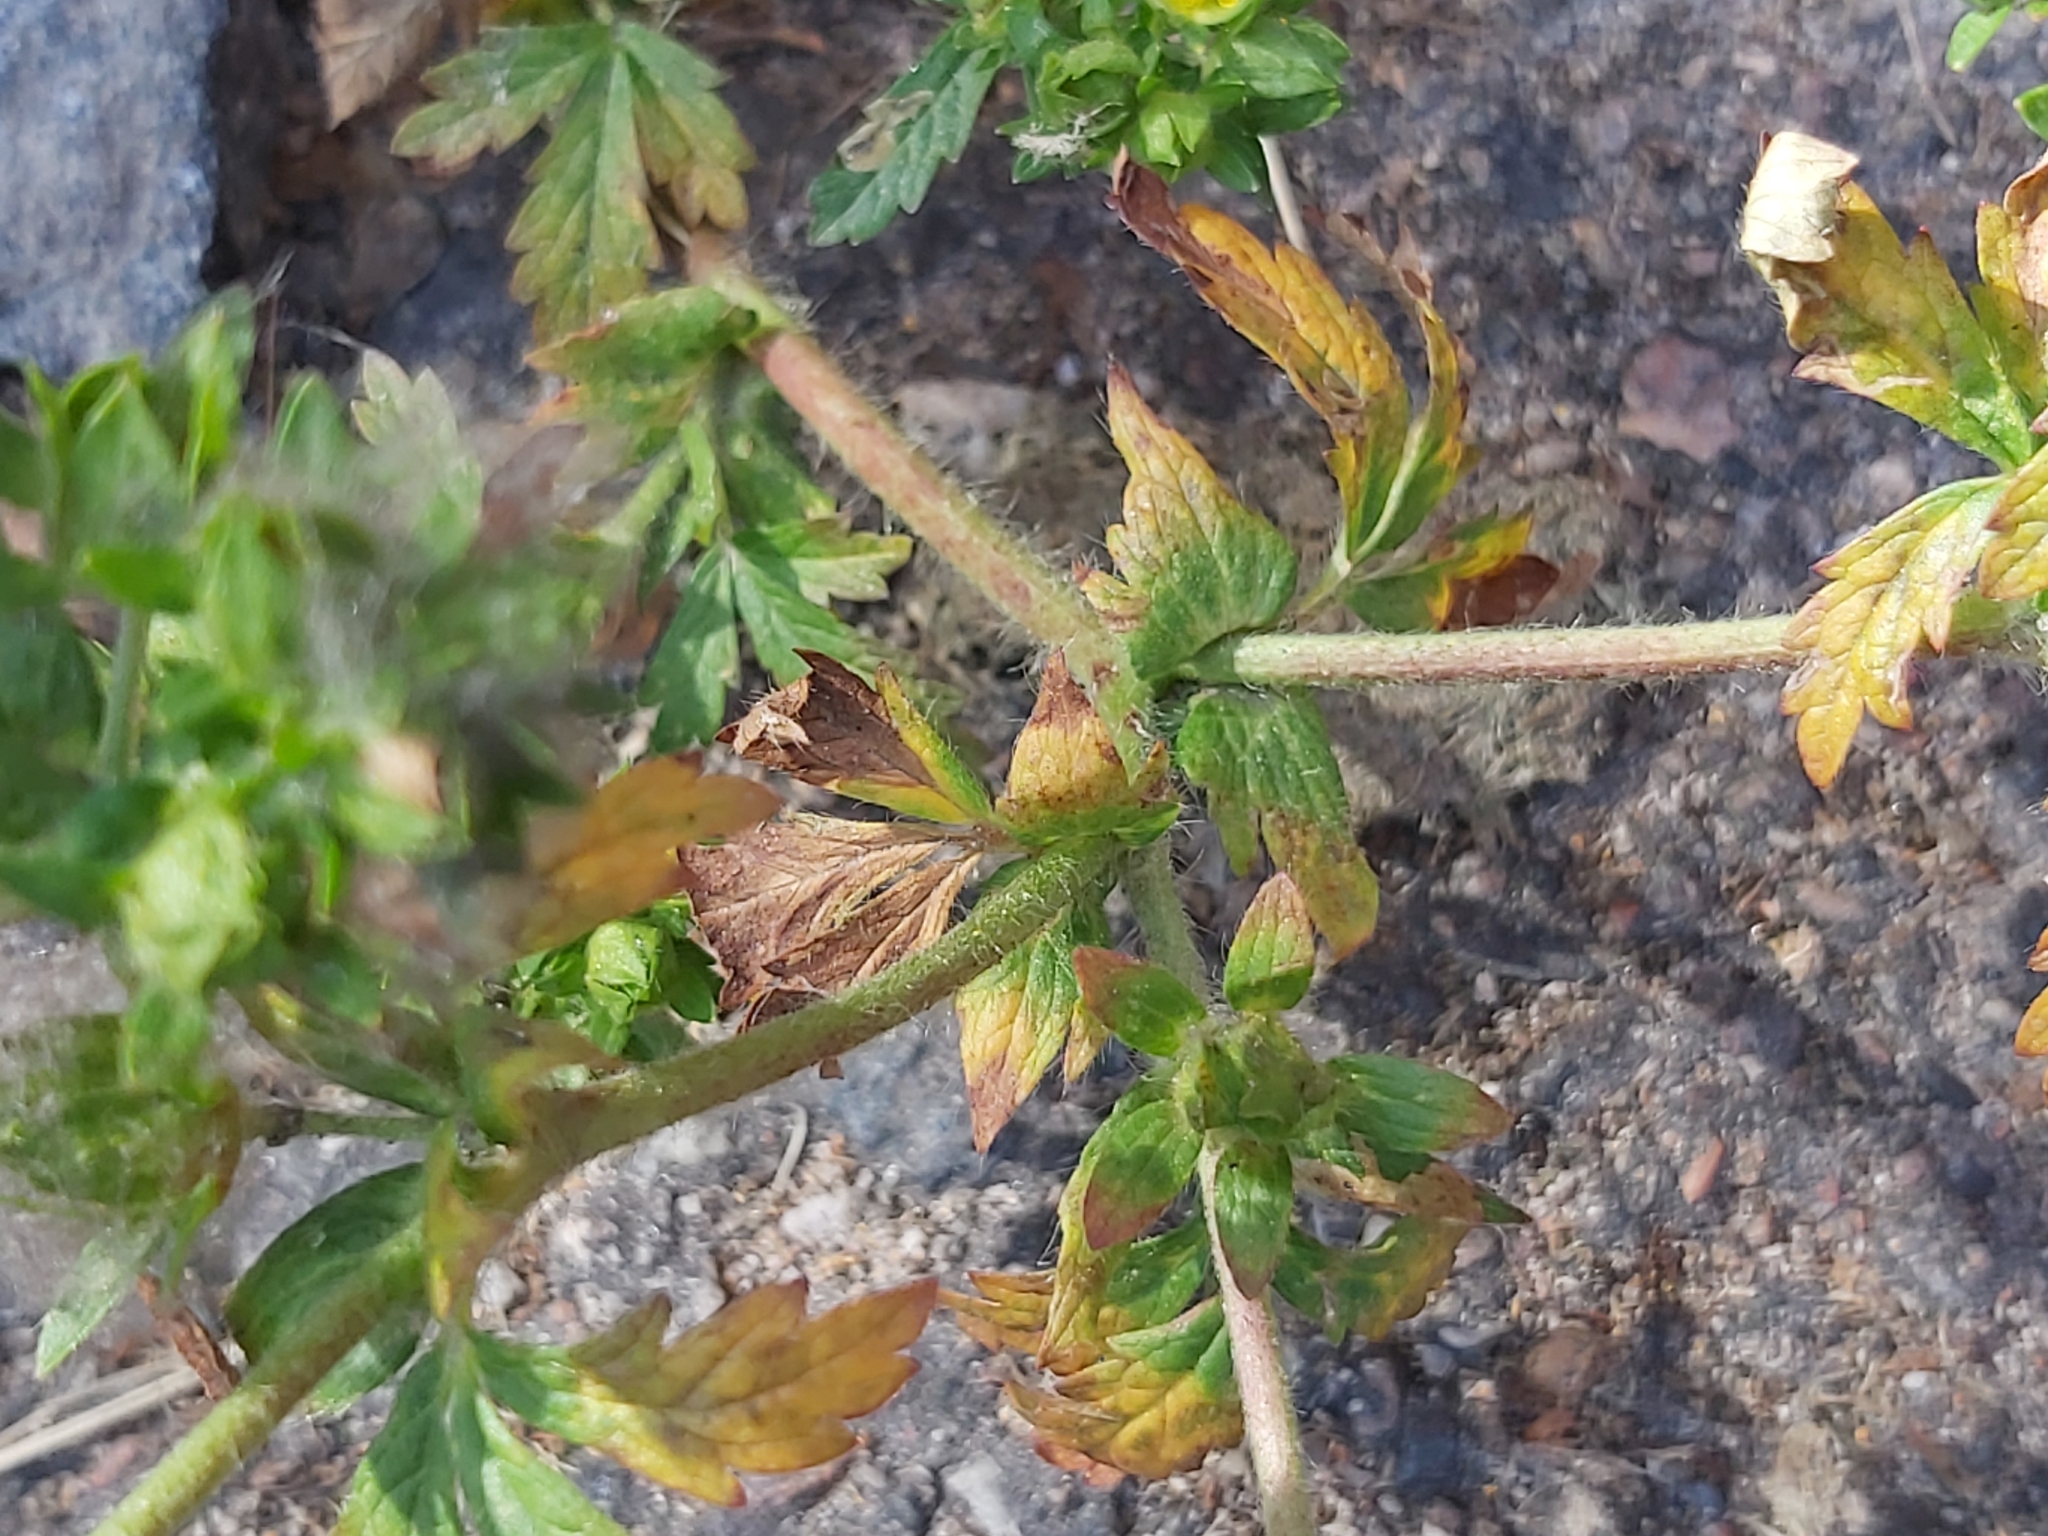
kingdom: Plantae
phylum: Tracheophyta
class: Magnoliopsida
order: Rosales
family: Rosaceae
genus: Potentilla
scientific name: Potentilla norvegica
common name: Ternate-leaved cinquefoil
